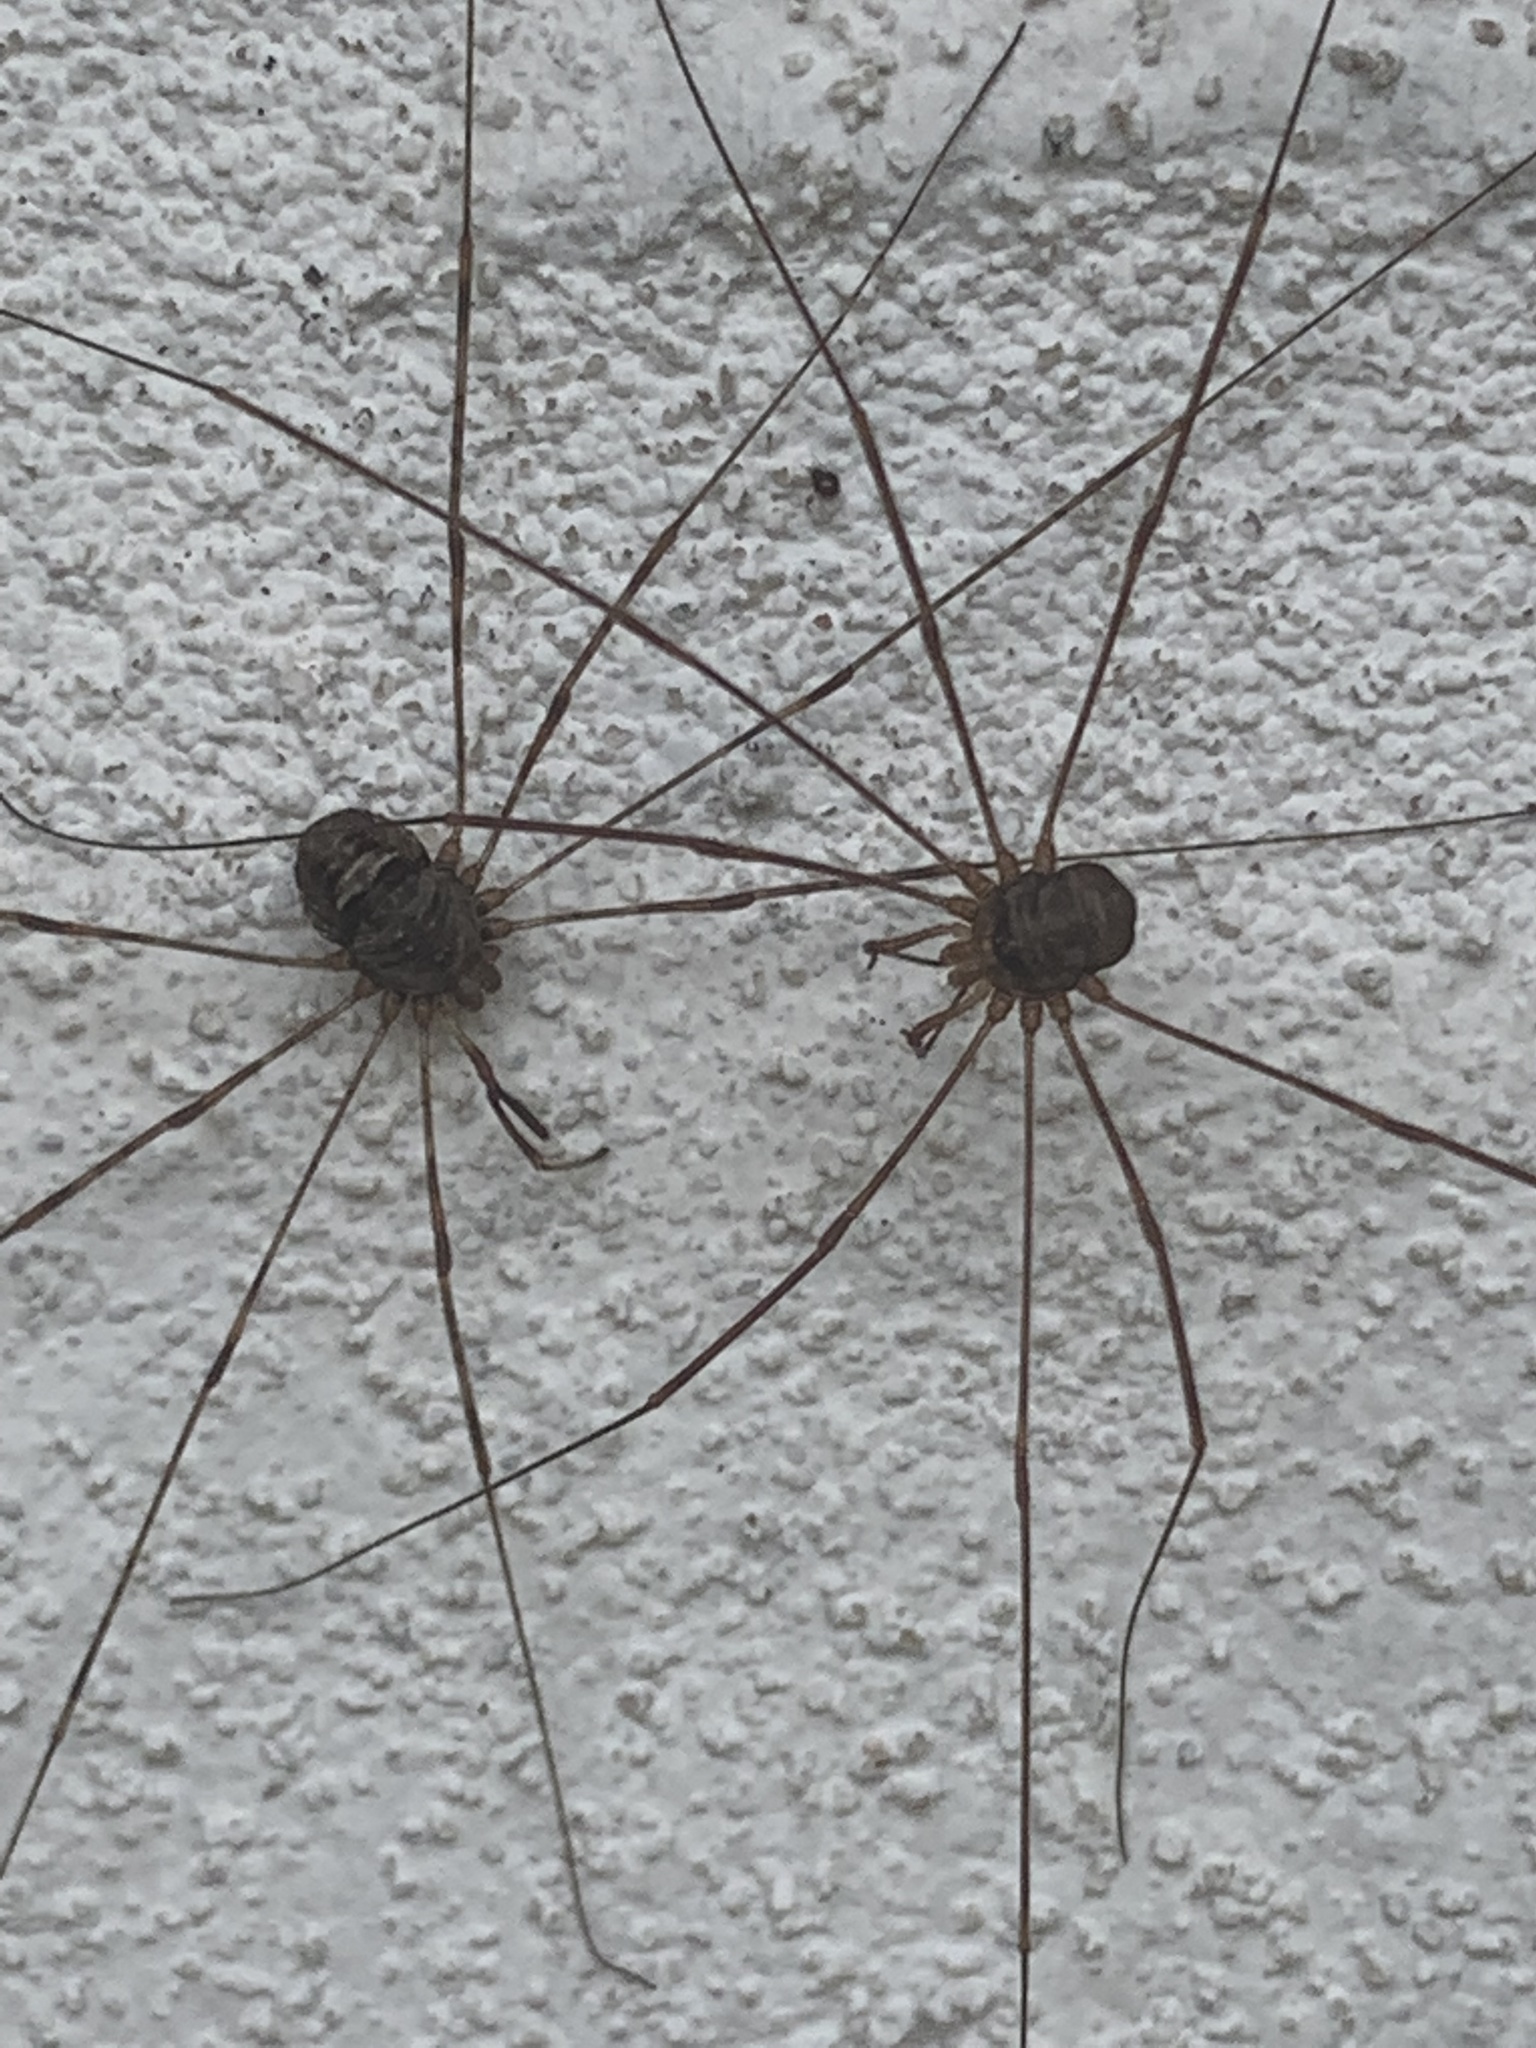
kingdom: Animalia
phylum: Arthropoda
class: Arachnida
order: Opiliones
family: Phalangiidae
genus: Dicranopalpus
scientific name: Dicranopalpus ramosus
